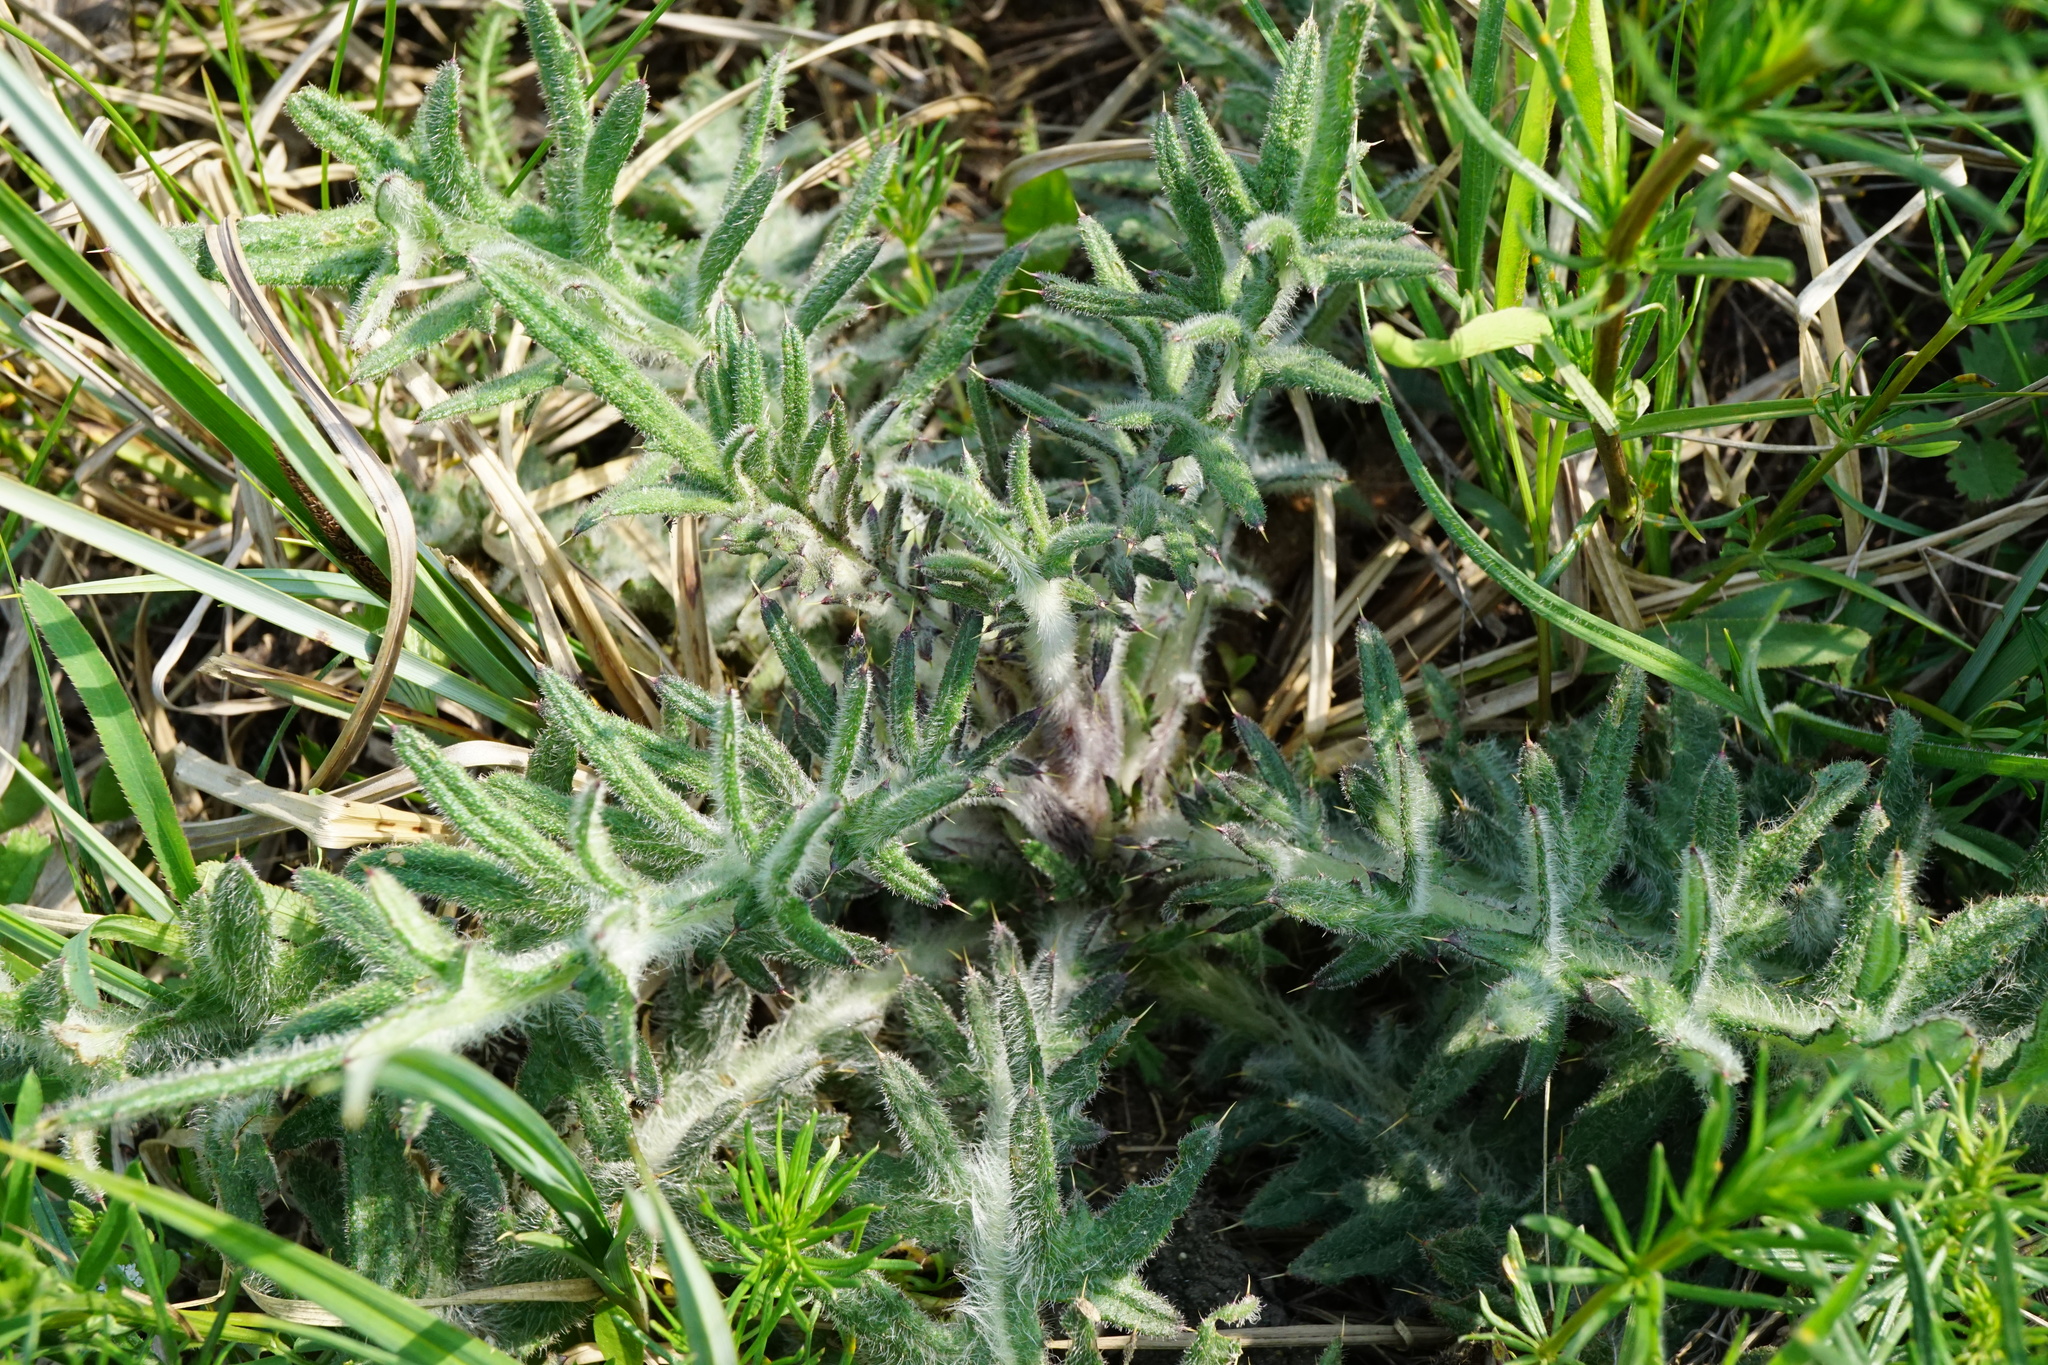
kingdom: Plantae
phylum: Tracheophyta
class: Magnoliopsida
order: Asterales
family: Asteraceae
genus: Cirsium
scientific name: Cirsium vulgare
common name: Bull thistle
